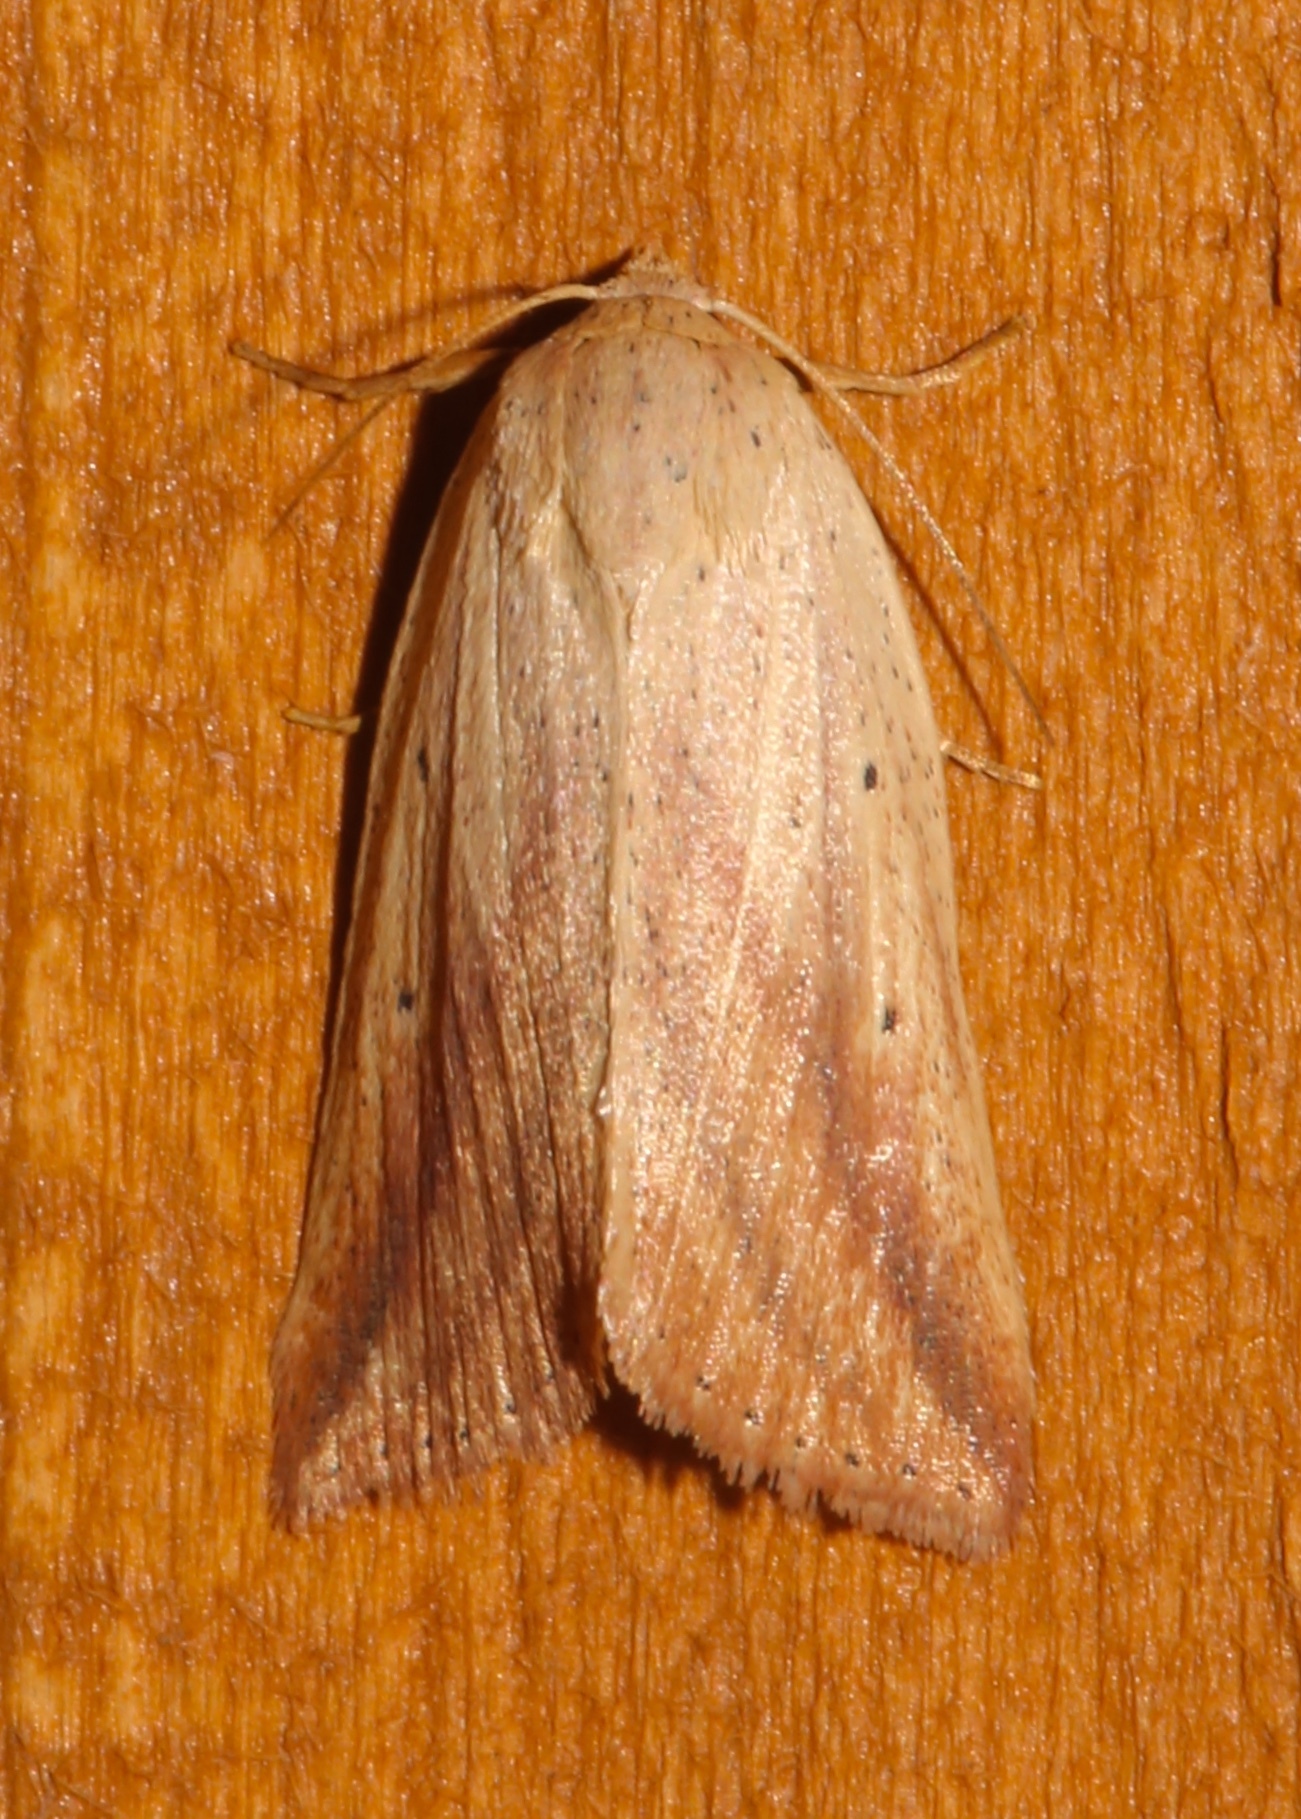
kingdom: Animalia
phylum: Arthropoda
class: Insecta
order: Lepidoptera
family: Noctuidae
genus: Amolita
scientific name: Amolita obliqua
